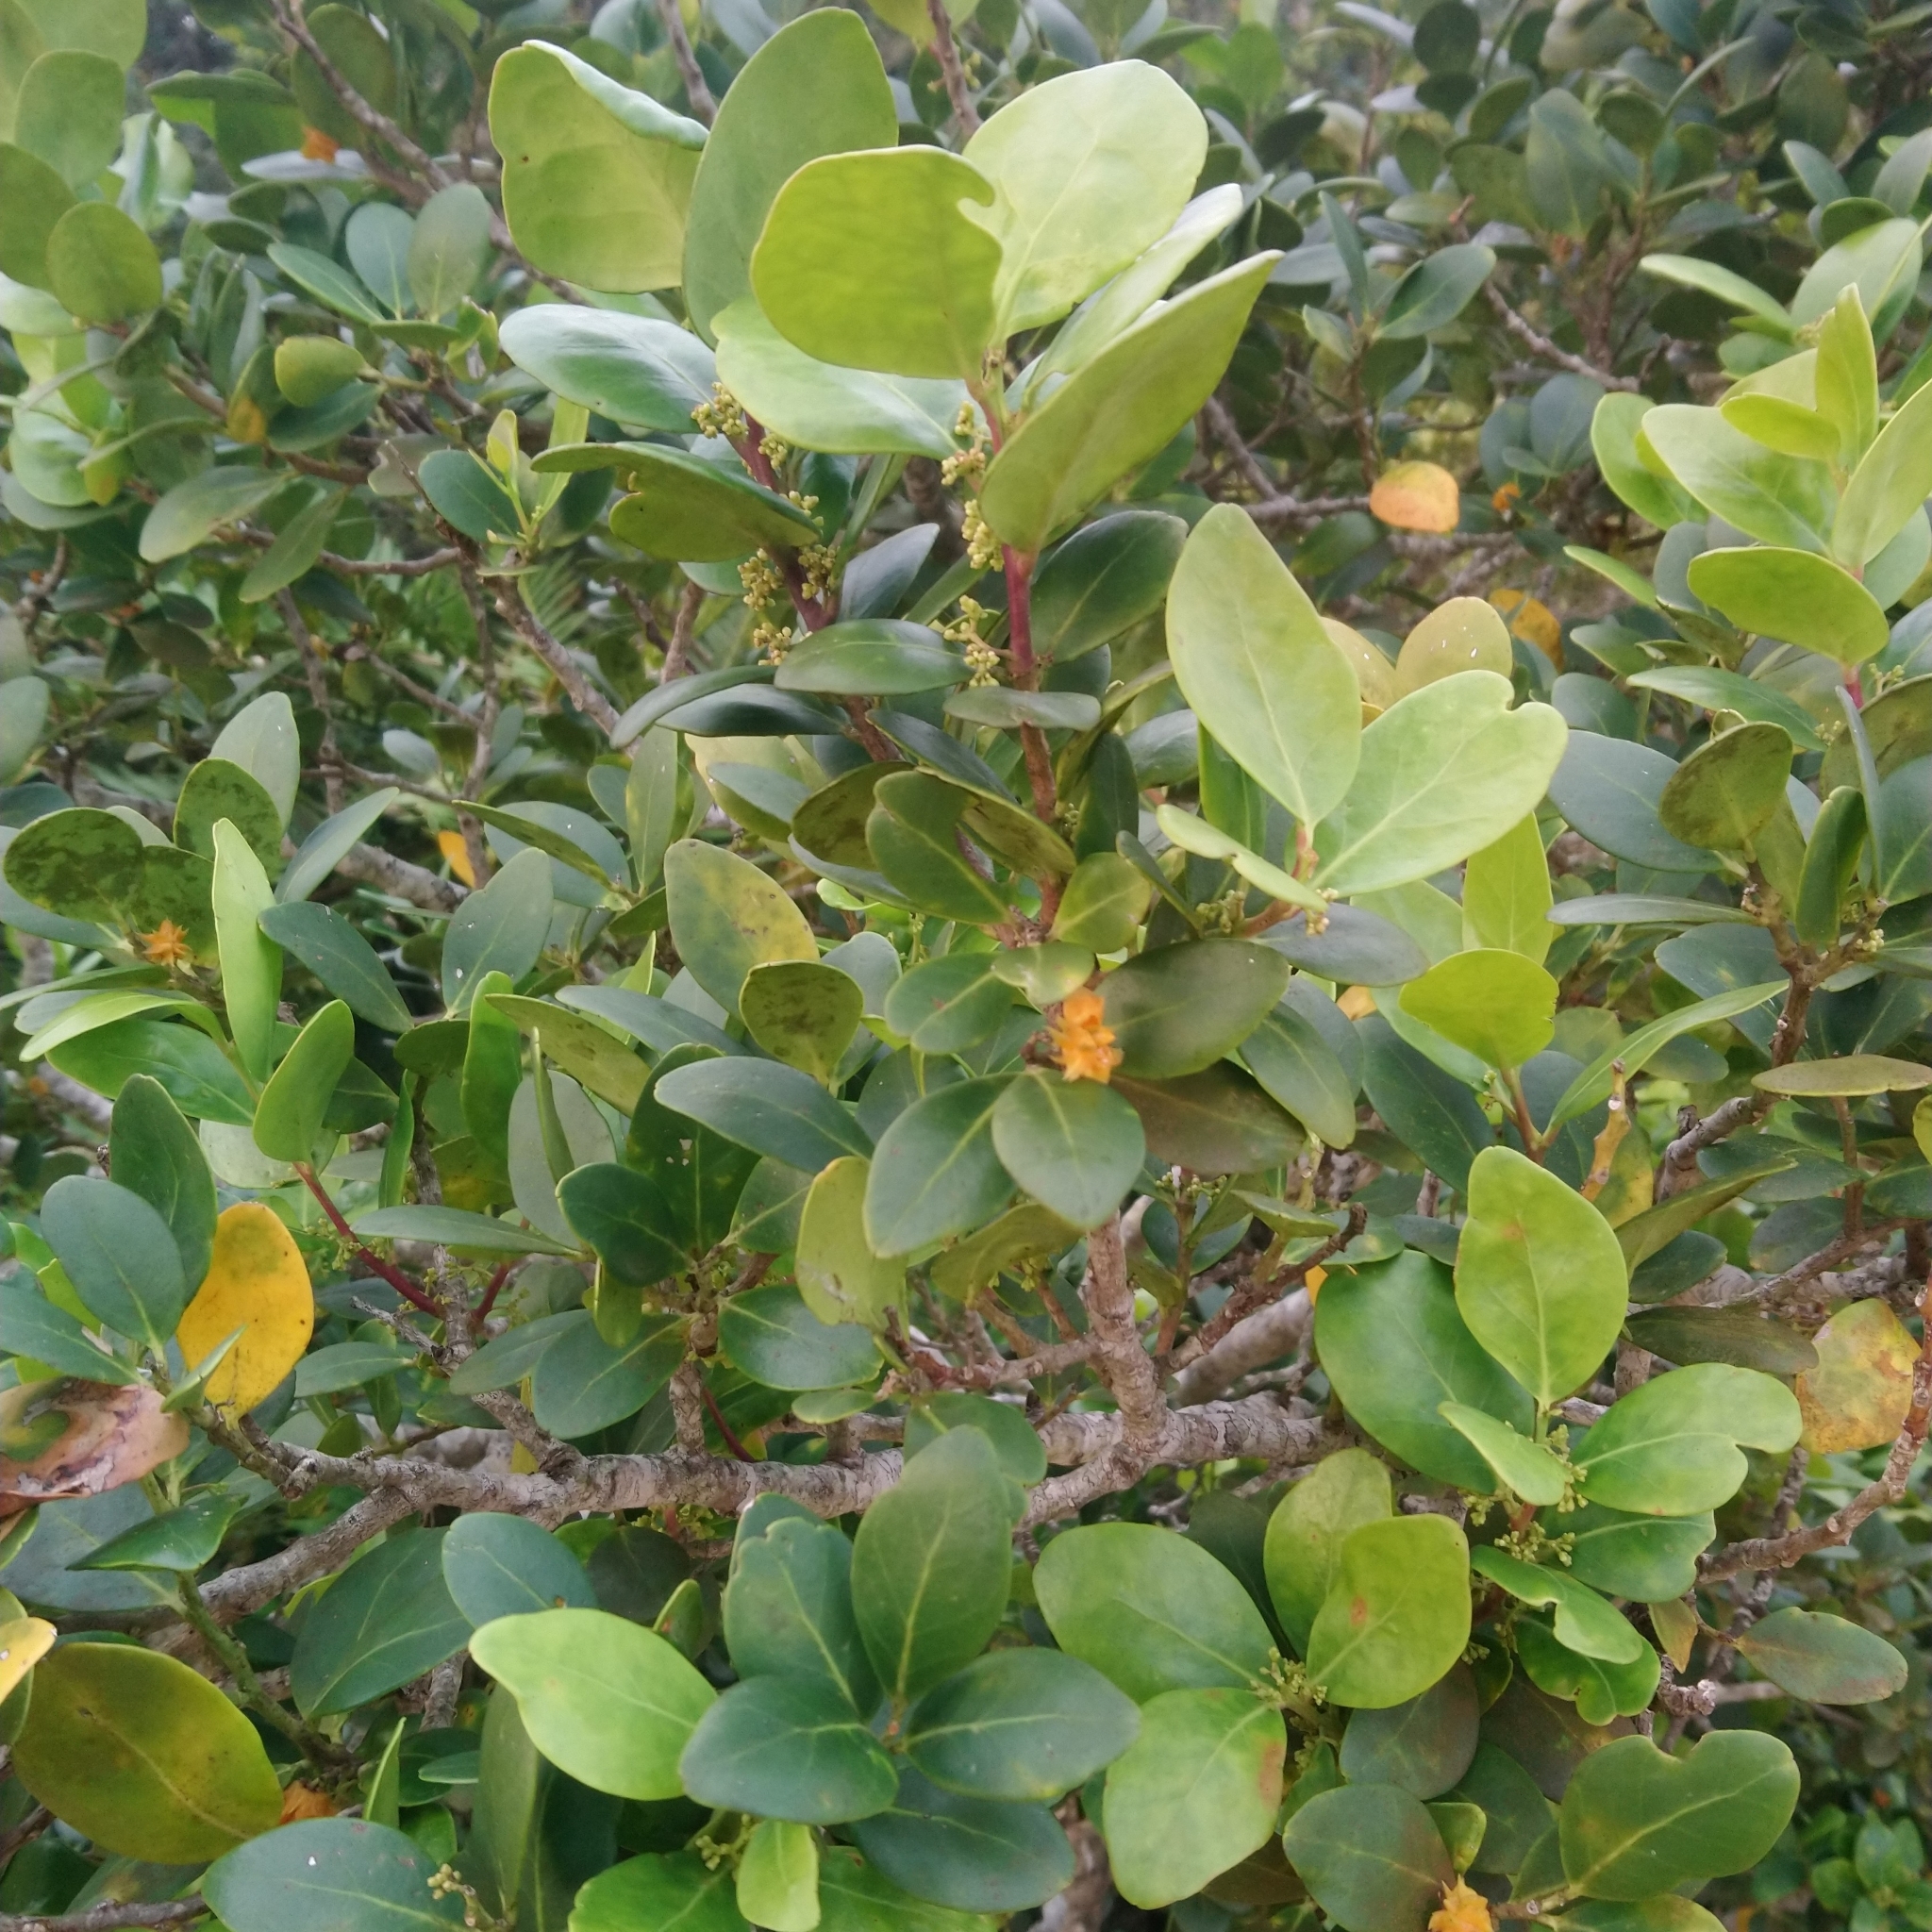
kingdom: Plantae
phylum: Tracheophyta
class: Magnoliopsida
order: Celastrales
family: Celastraceae
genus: Pterocelastrus
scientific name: Pterocelastrus tricuspidatus
